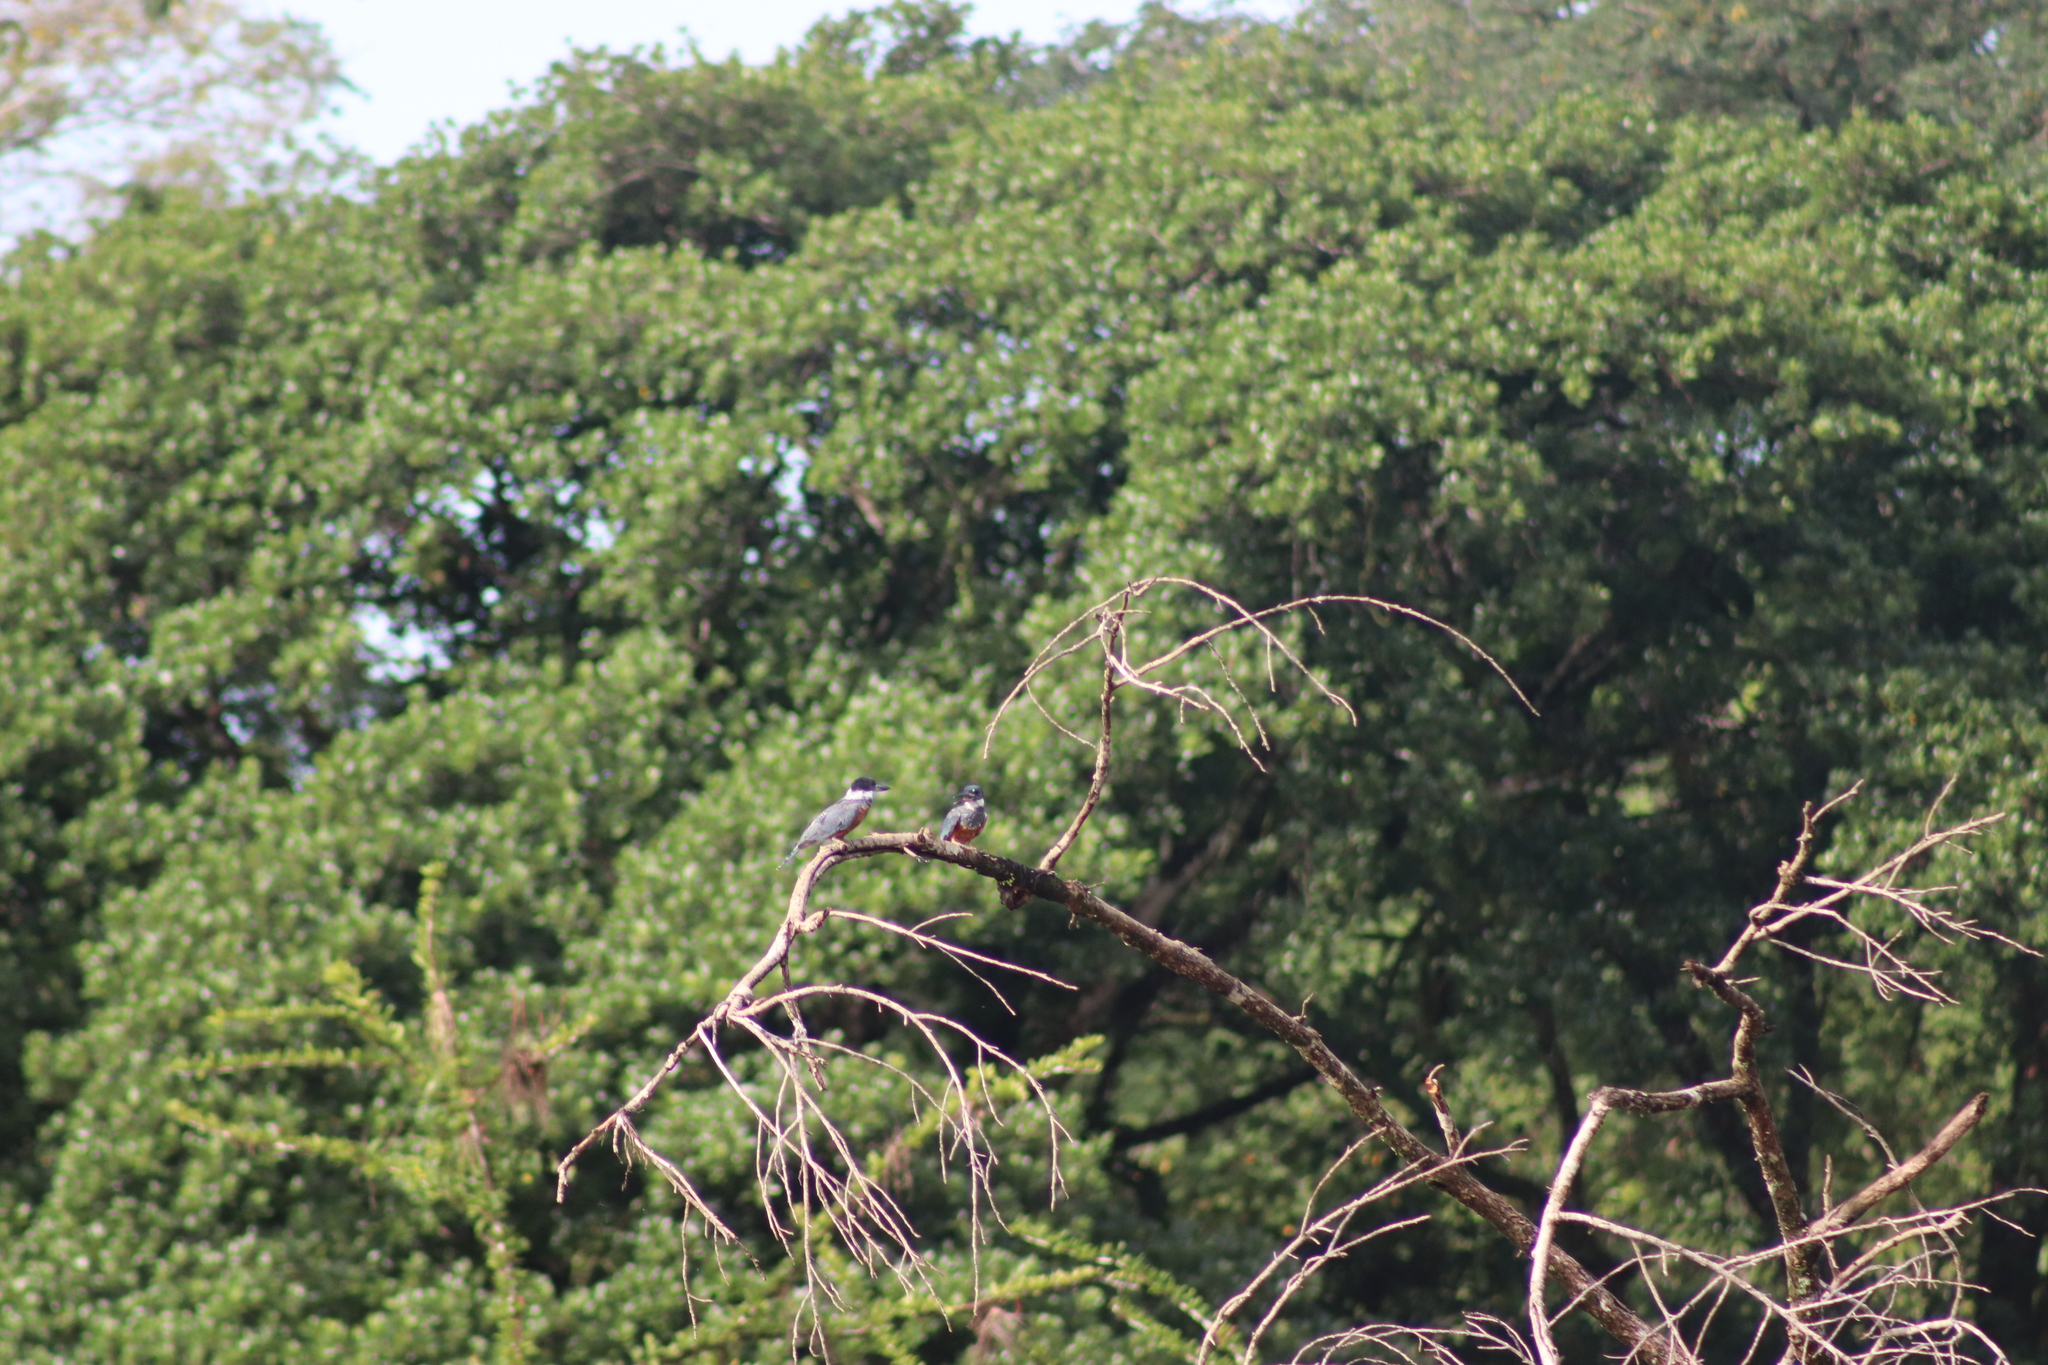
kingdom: Animalia
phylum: Chordata
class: Aves
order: Coraciiformes
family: Alcedinidae
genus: Megaceryle
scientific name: Megaceryle torquata
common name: Ringed kingfisher
